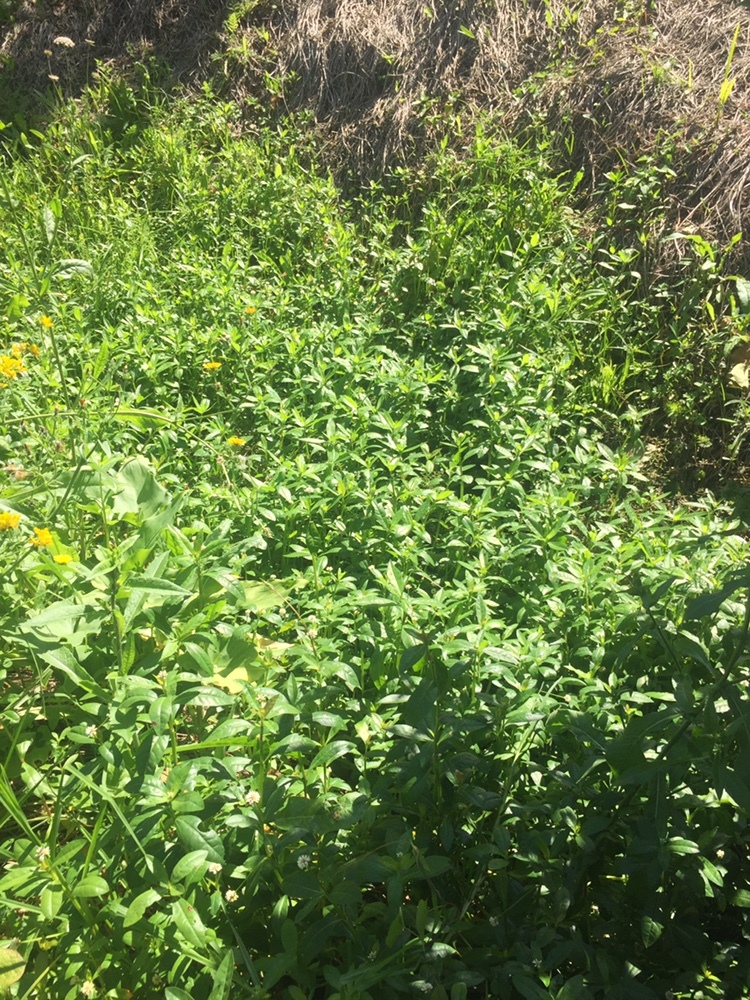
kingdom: Plantae
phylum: Tracheophyta
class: Magnoliopsida
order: Caryophyllales
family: Amaranthaceae
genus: Alternanthera
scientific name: Alternanthera philoxeroides
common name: Alligatorweed
